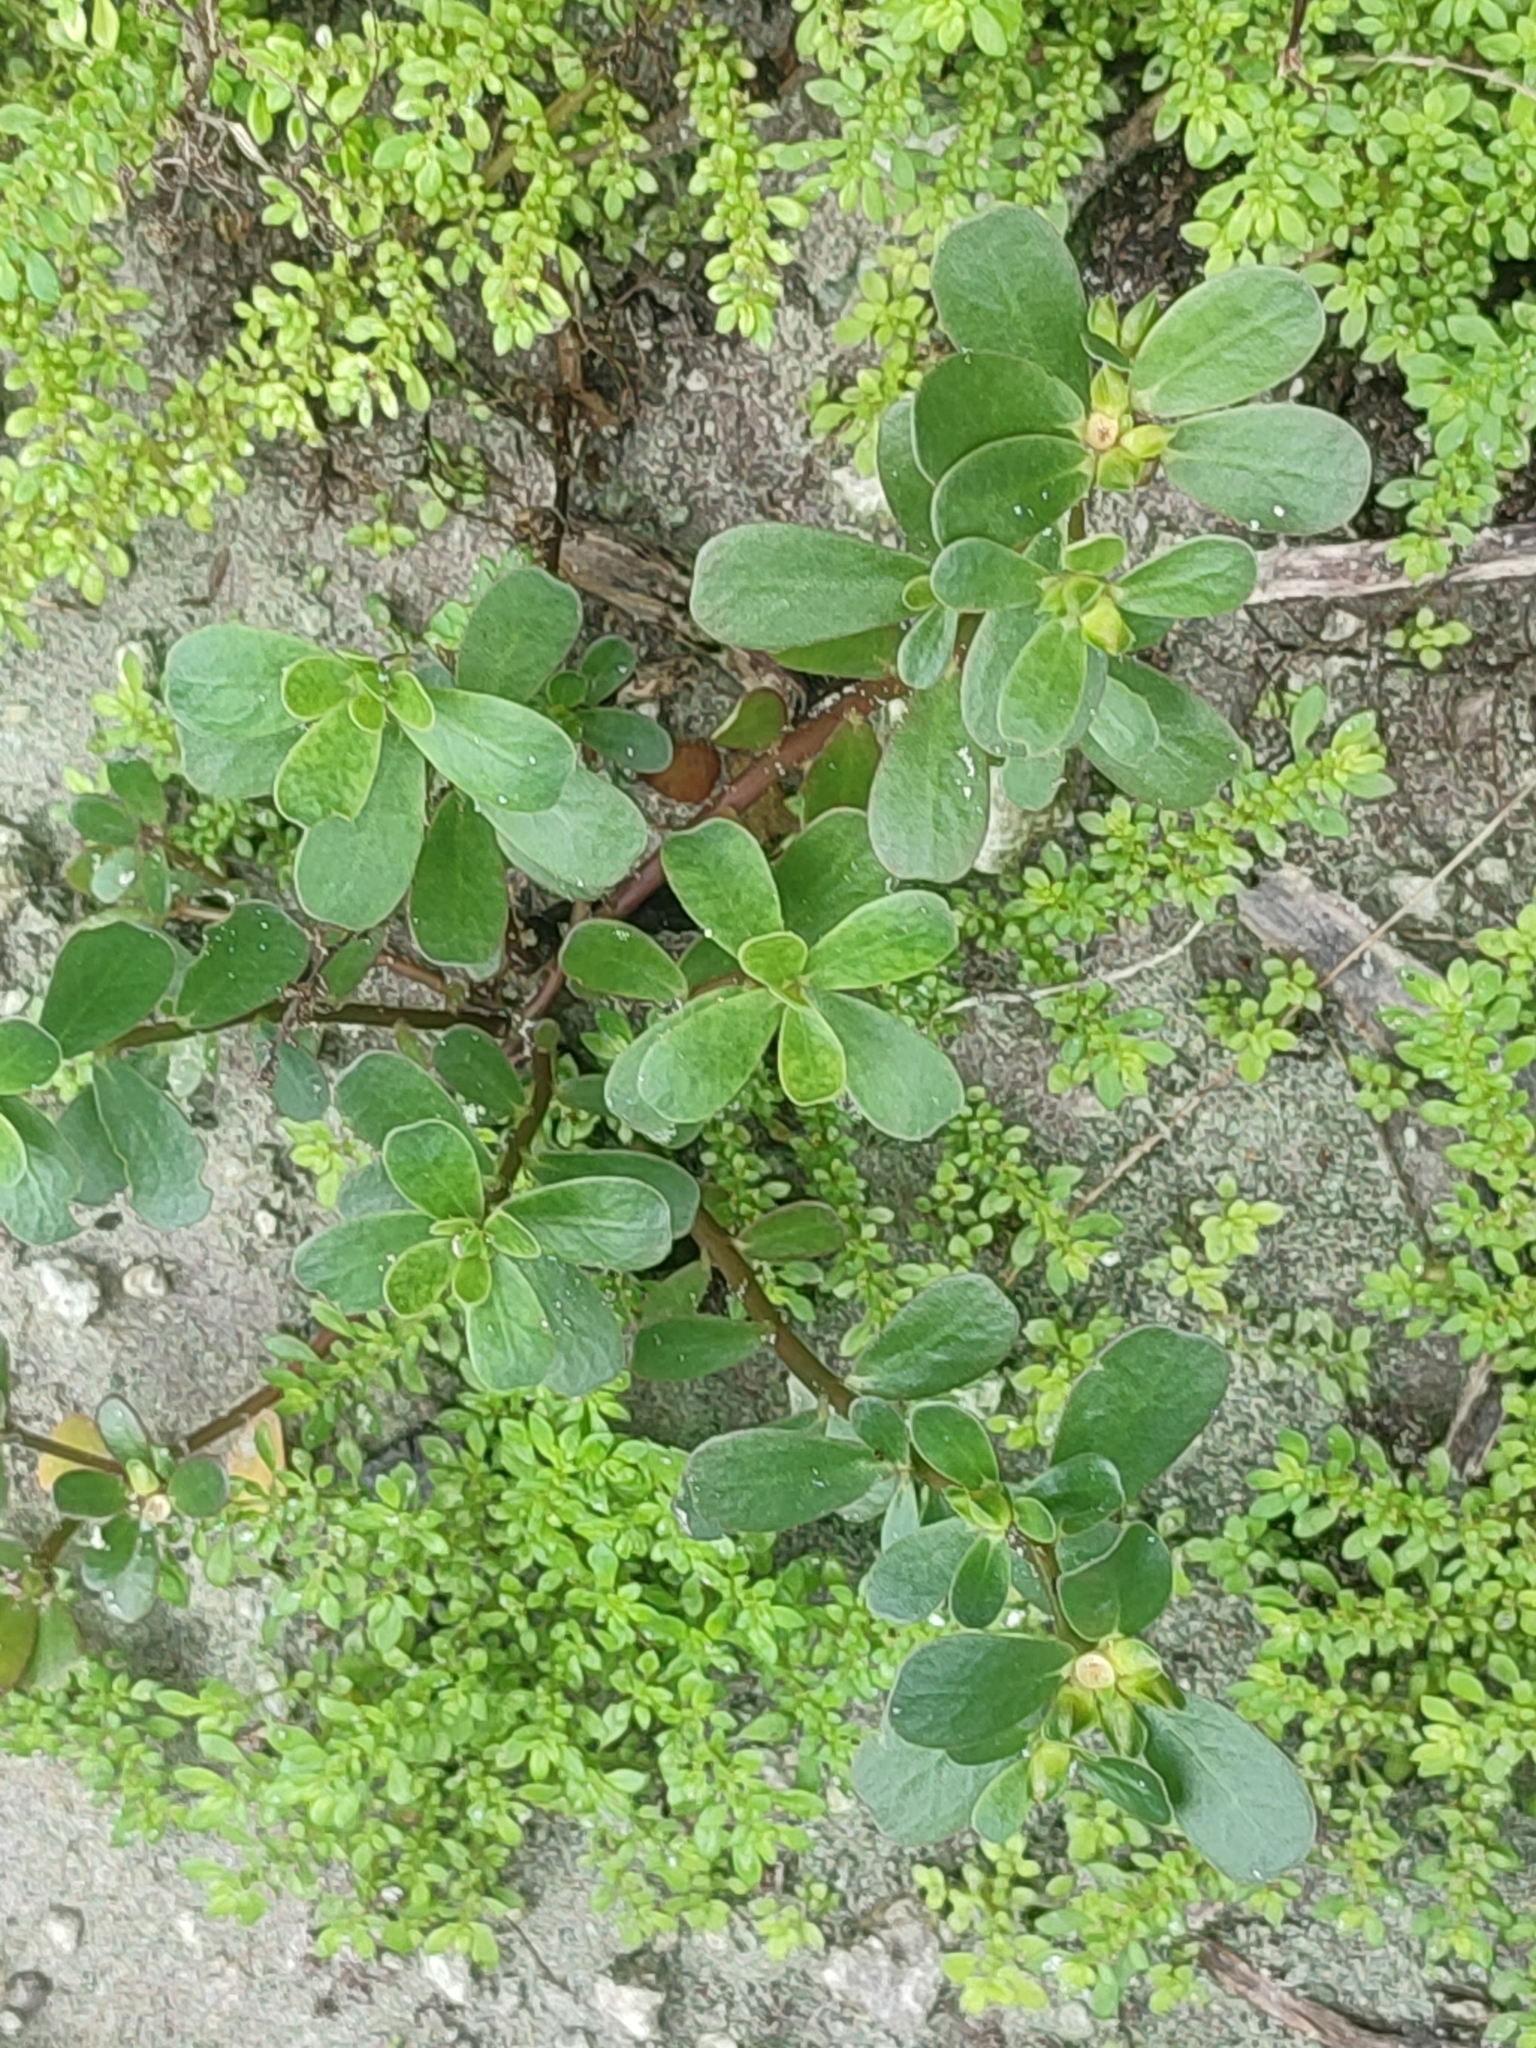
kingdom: Plantae
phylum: Tracheophyta
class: Magnoliopsida
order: Caryophyllales
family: Portulacaceae
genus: Portulaca
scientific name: Portulaca oleracea
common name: Common purslane
